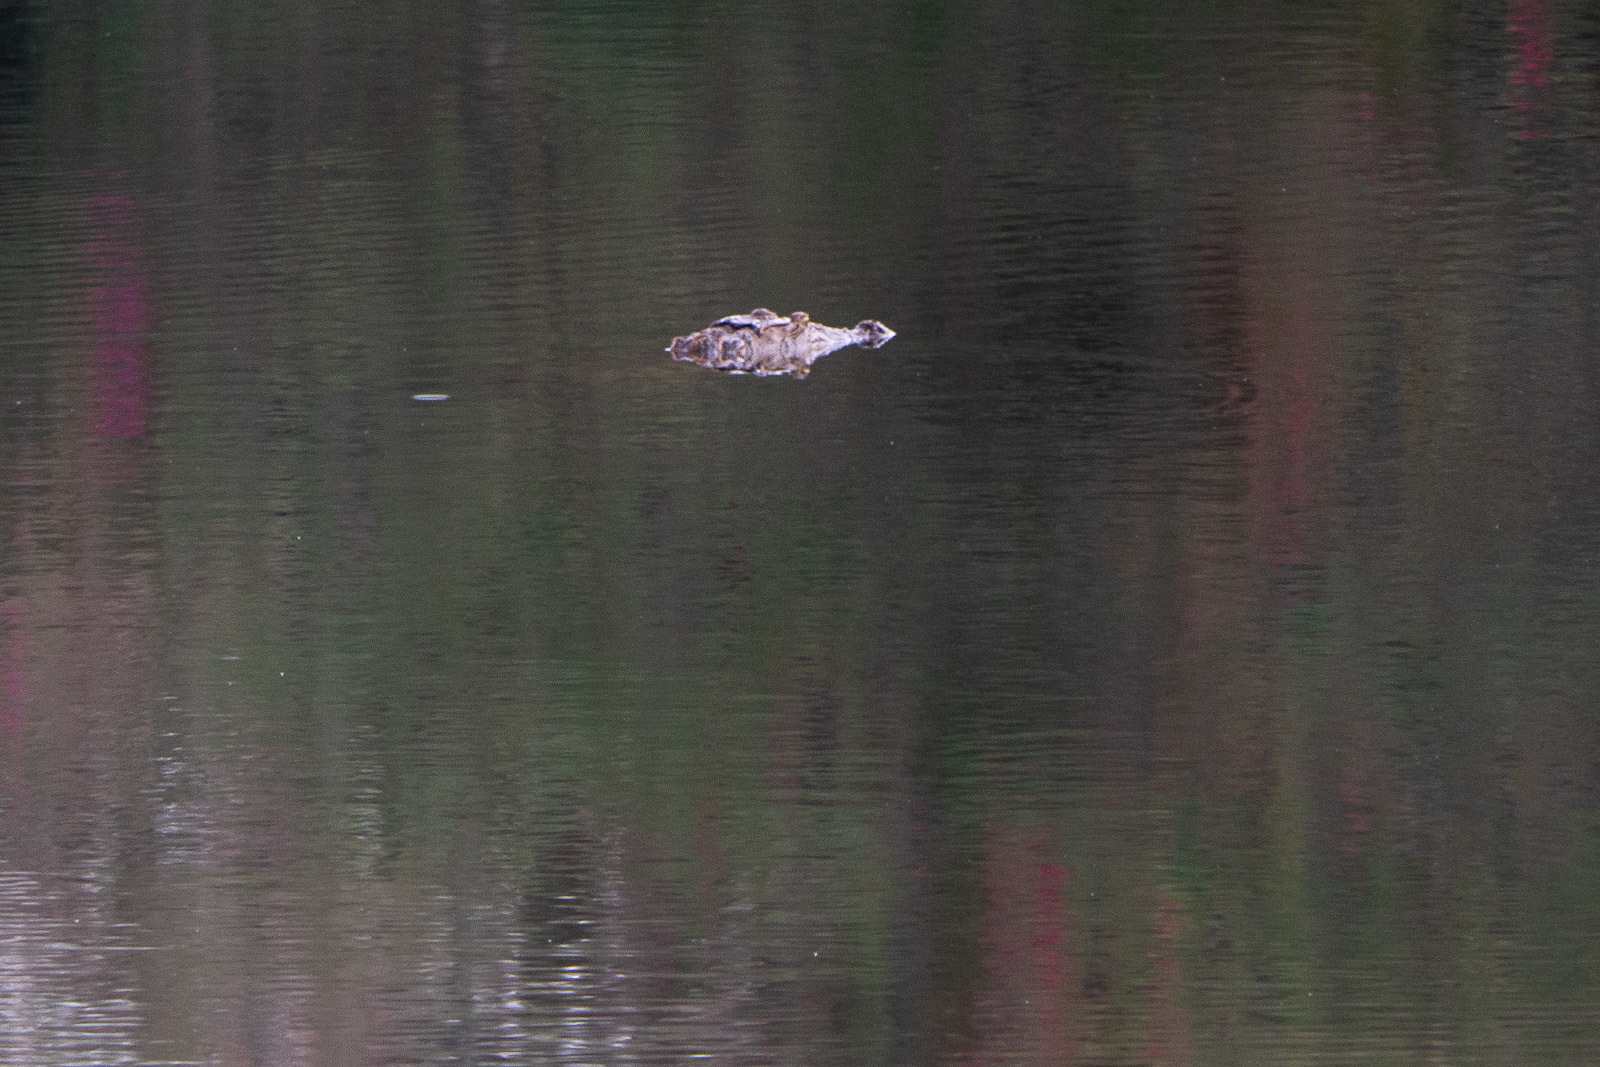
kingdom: Animalia
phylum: Chordata
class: Crocodylia
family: Crocodylidae
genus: Crocodylus
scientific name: Crocodylus palustris
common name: Mugger crocodile
